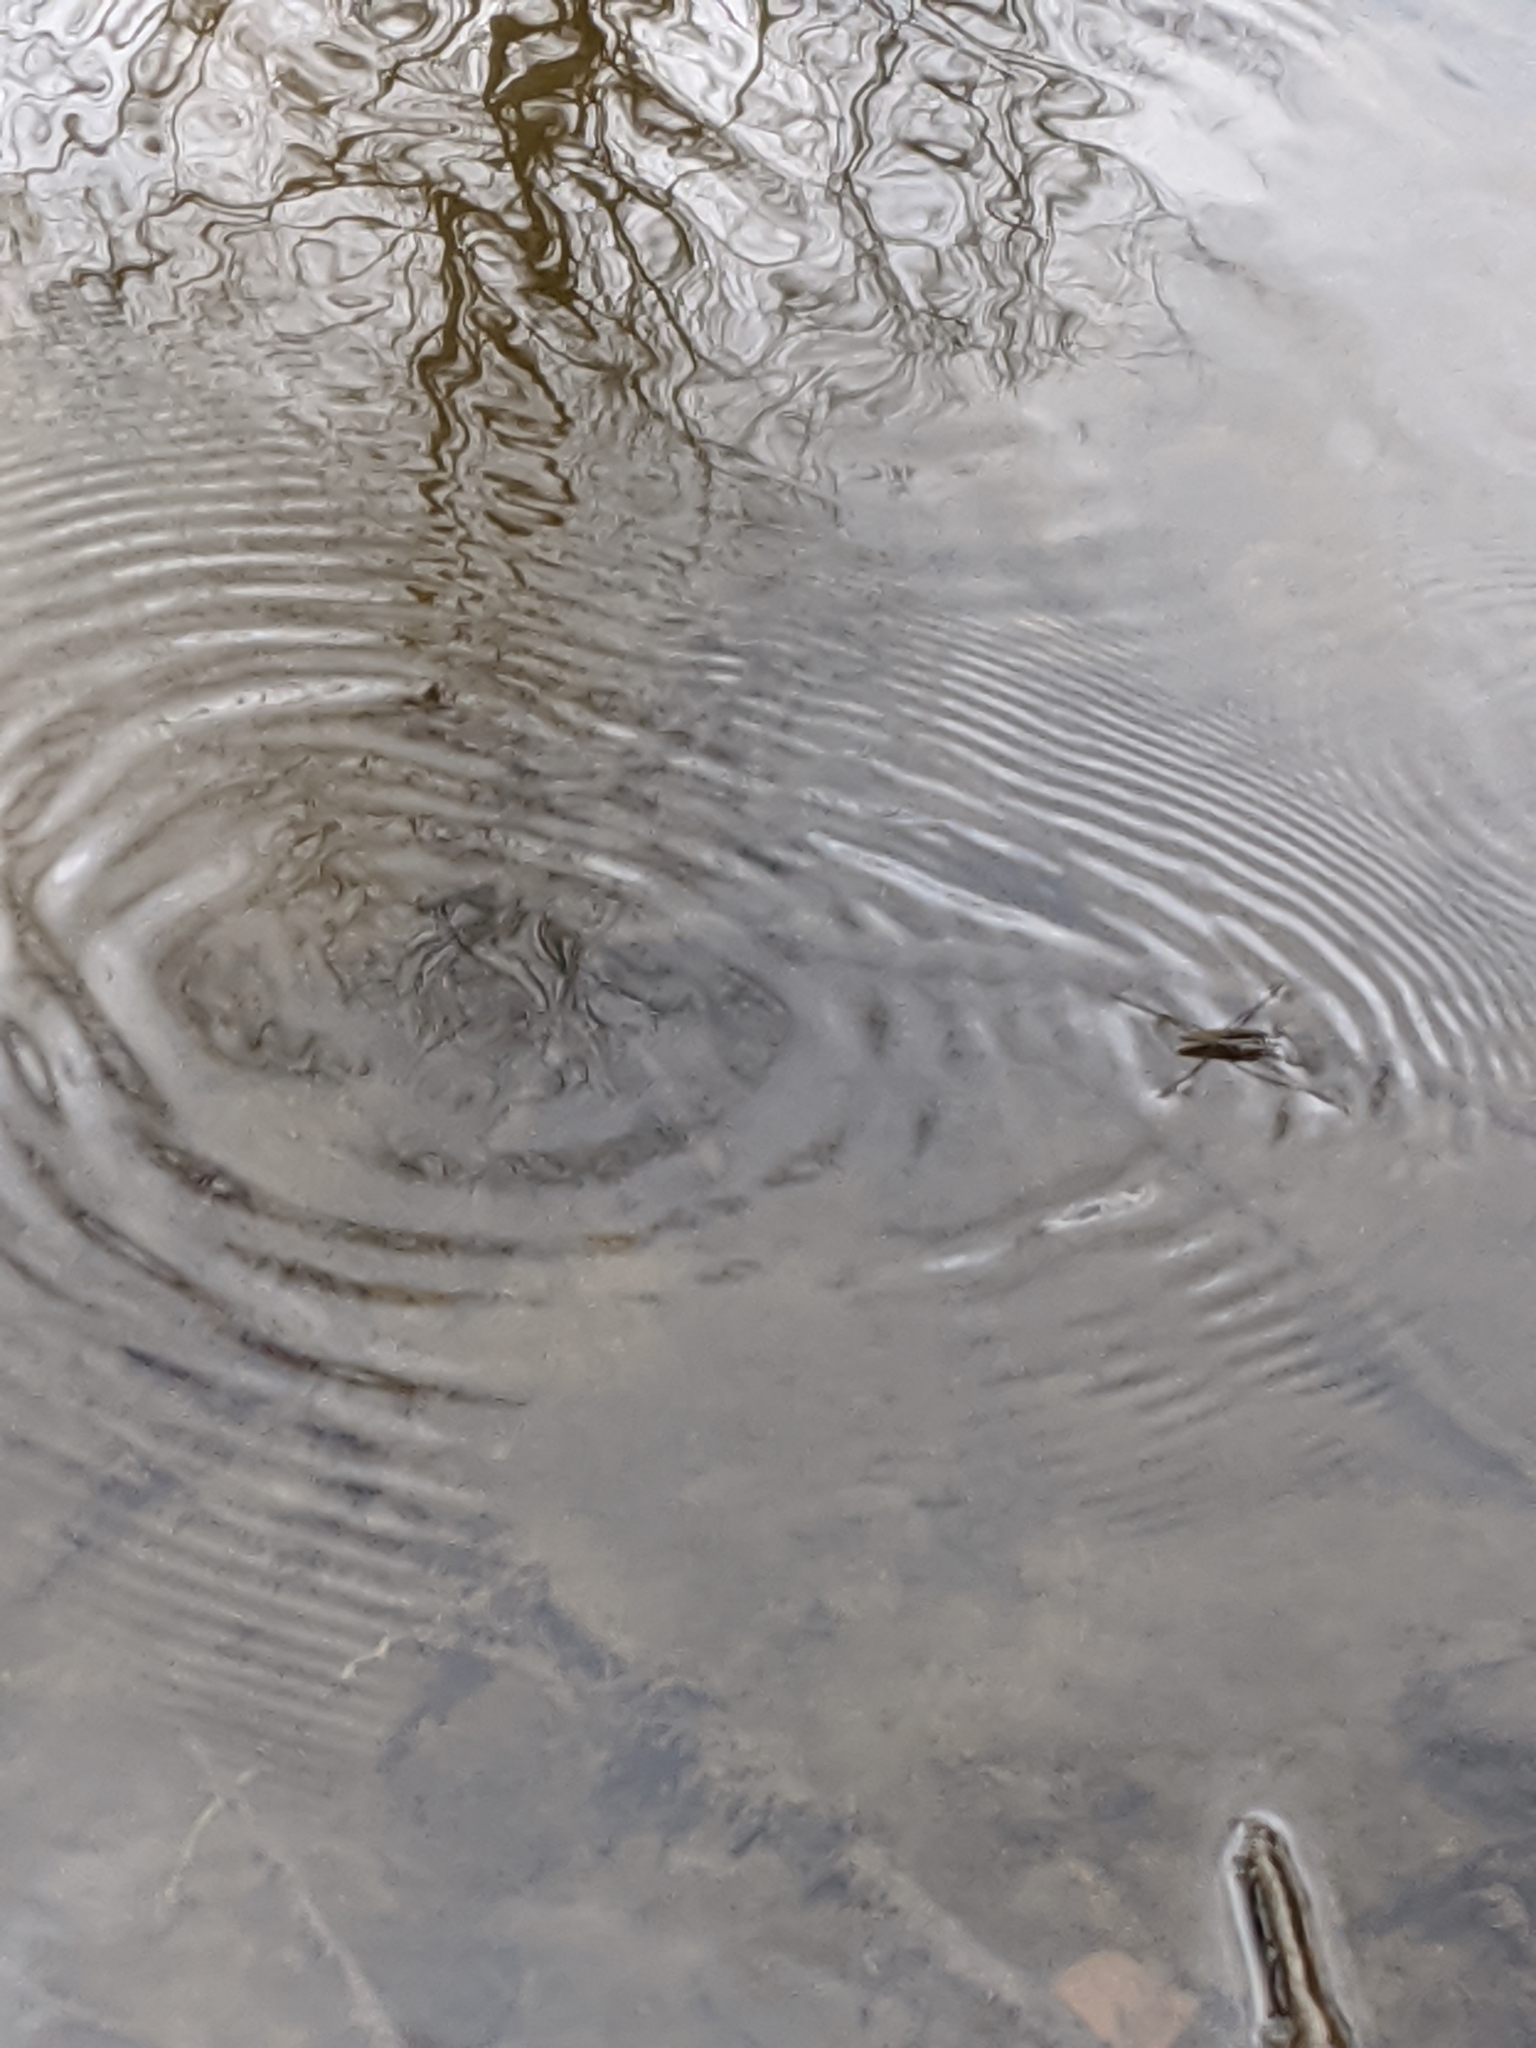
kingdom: Animalia
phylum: Arthropoda
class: Insecta
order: Hemiptera
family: Gerridae
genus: Aquarius
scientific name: Aquarius
